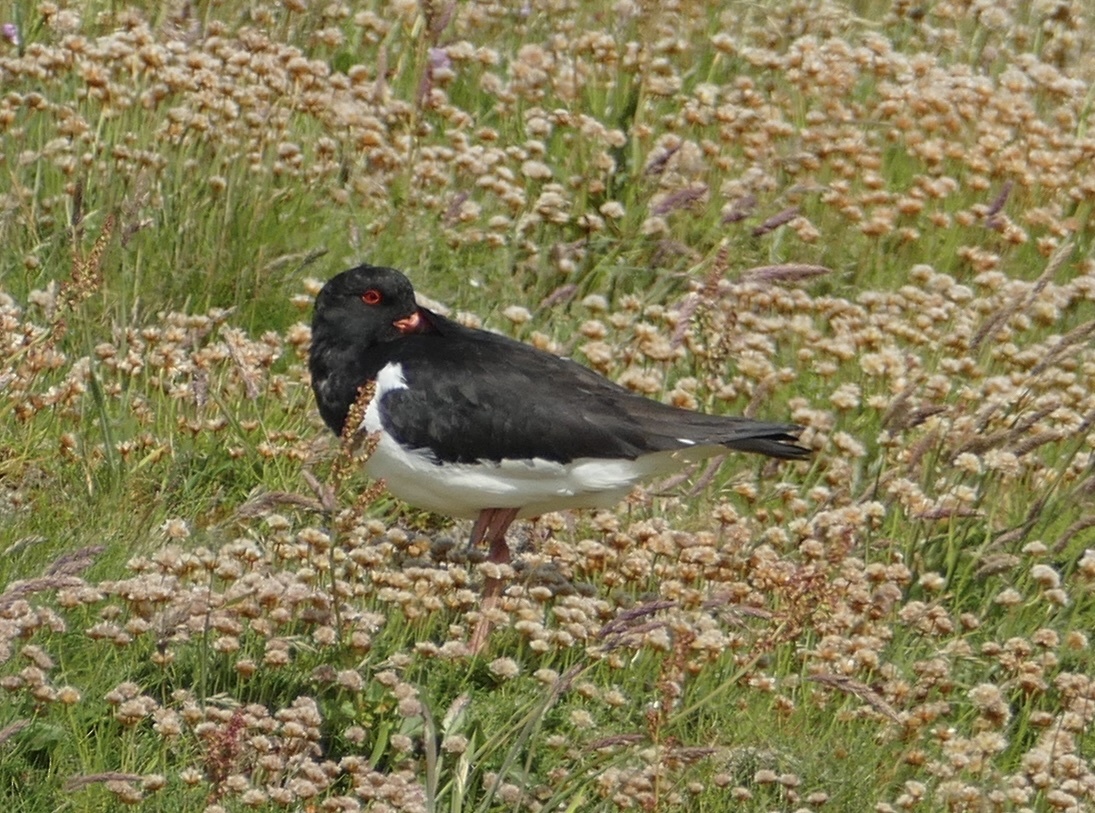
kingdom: Animalia
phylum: Chordata
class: Aves
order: Charadriiformes
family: Haematopodidae
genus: Haematopus
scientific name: Haematopus ostralegus
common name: Eurasian oystercatcher
